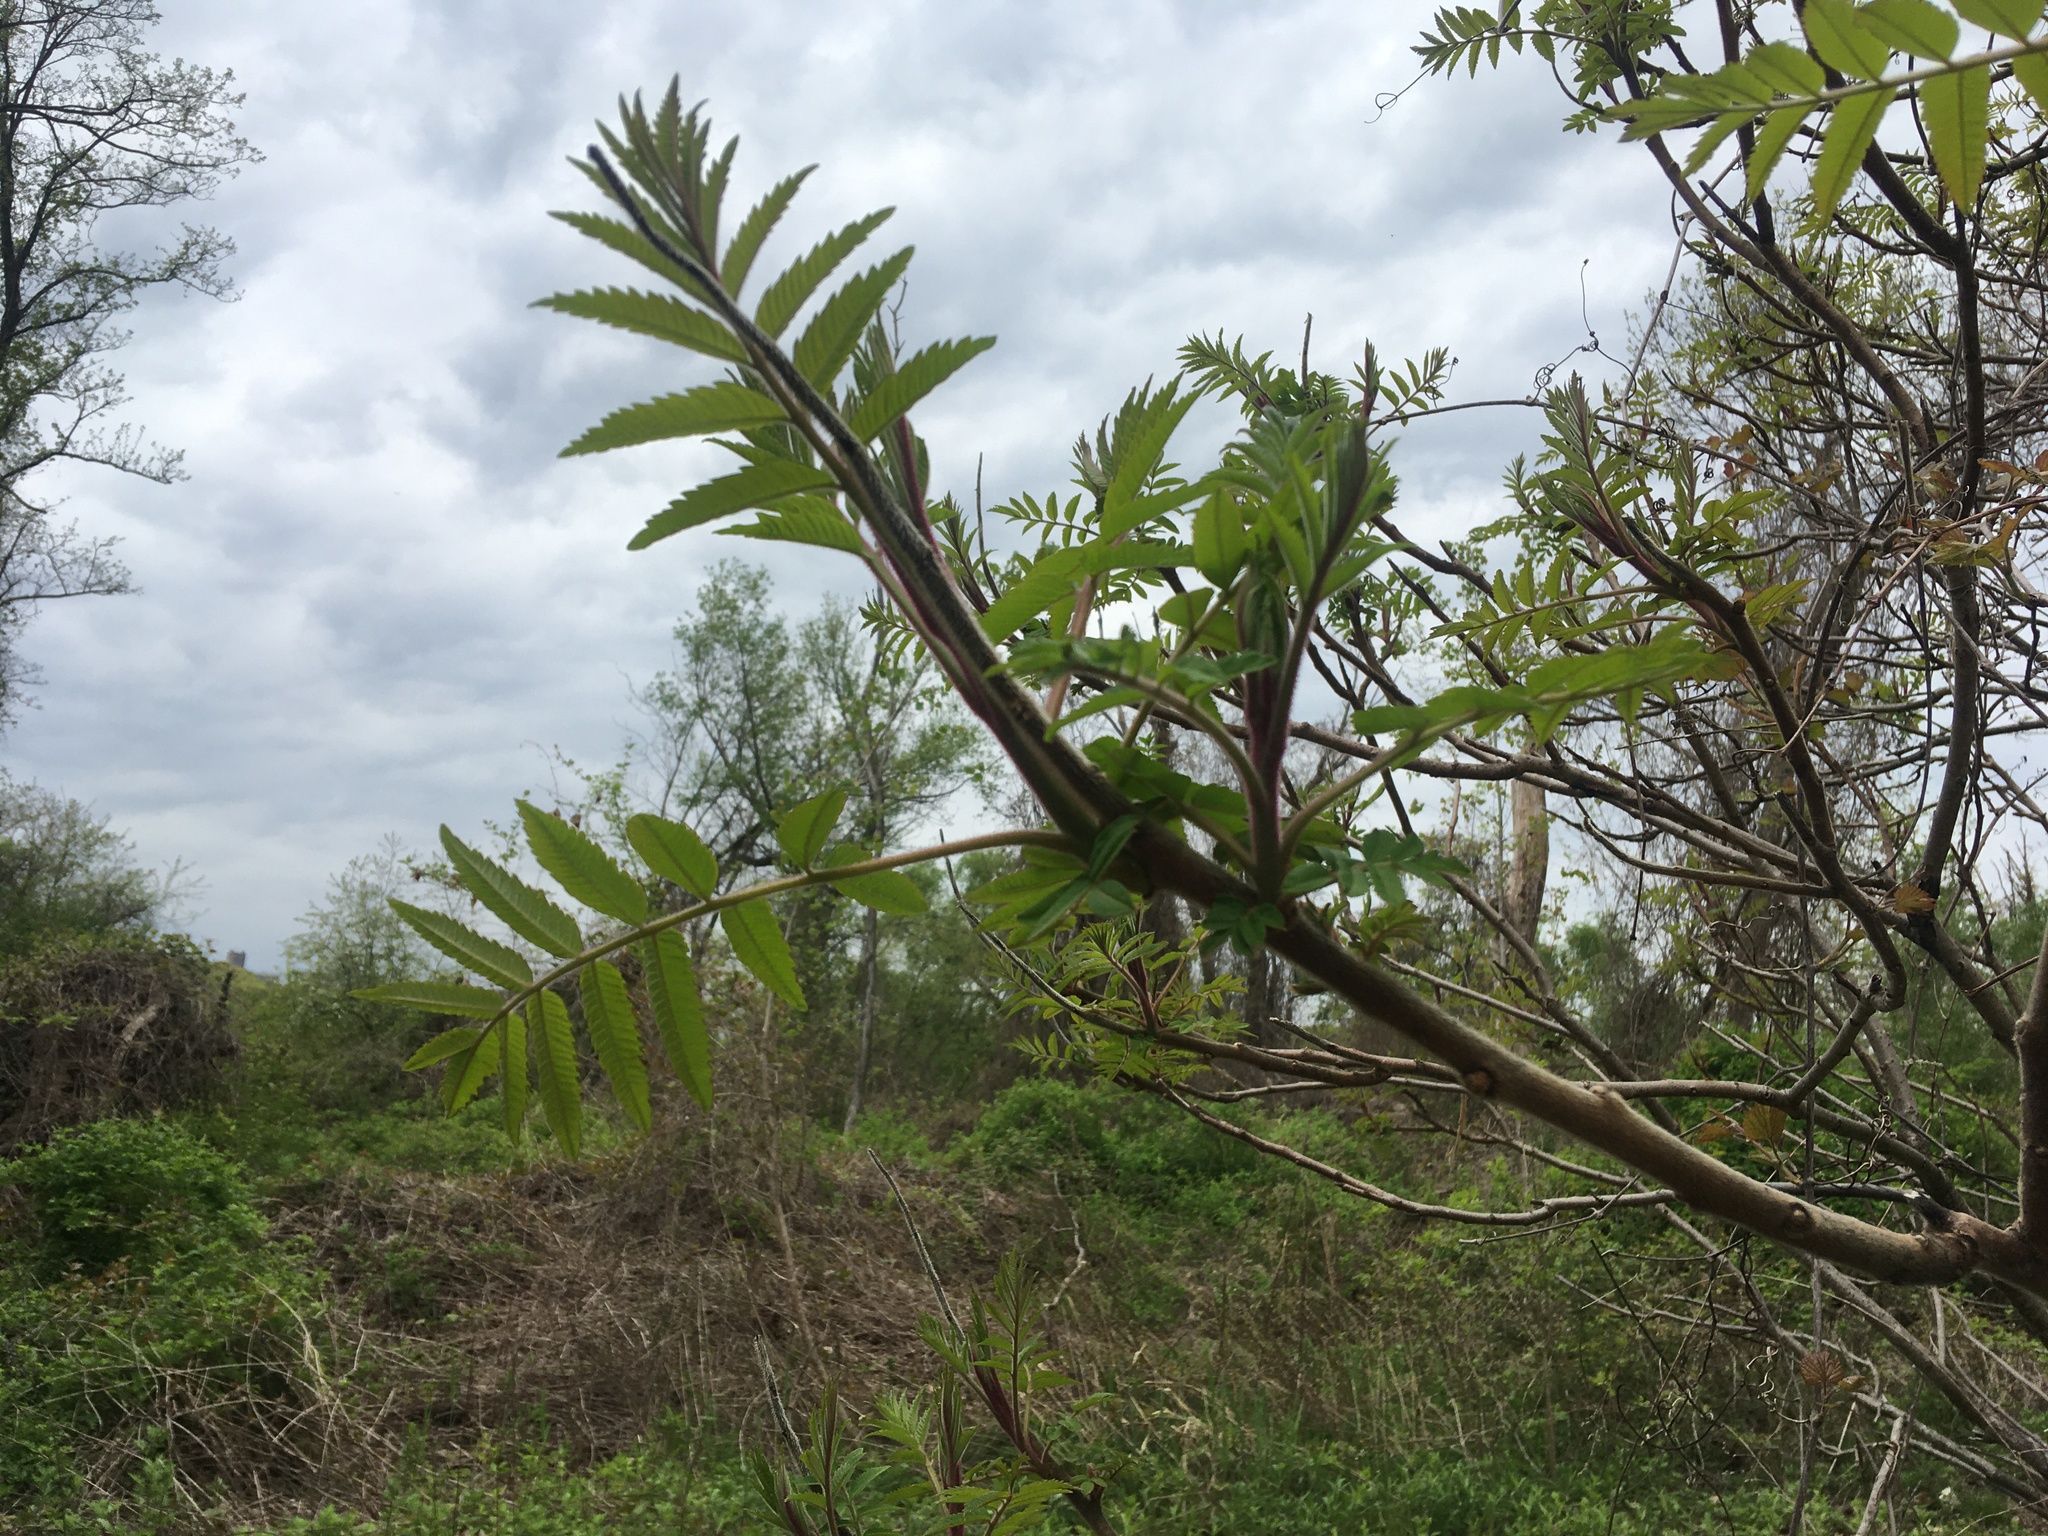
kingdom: Plantae
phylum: Tracheophyta
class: Magnoliopsida
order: Sapindales
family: Anacardiaceae
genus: Rhus
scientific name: Rhus typhina
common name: Staghorn sumac
